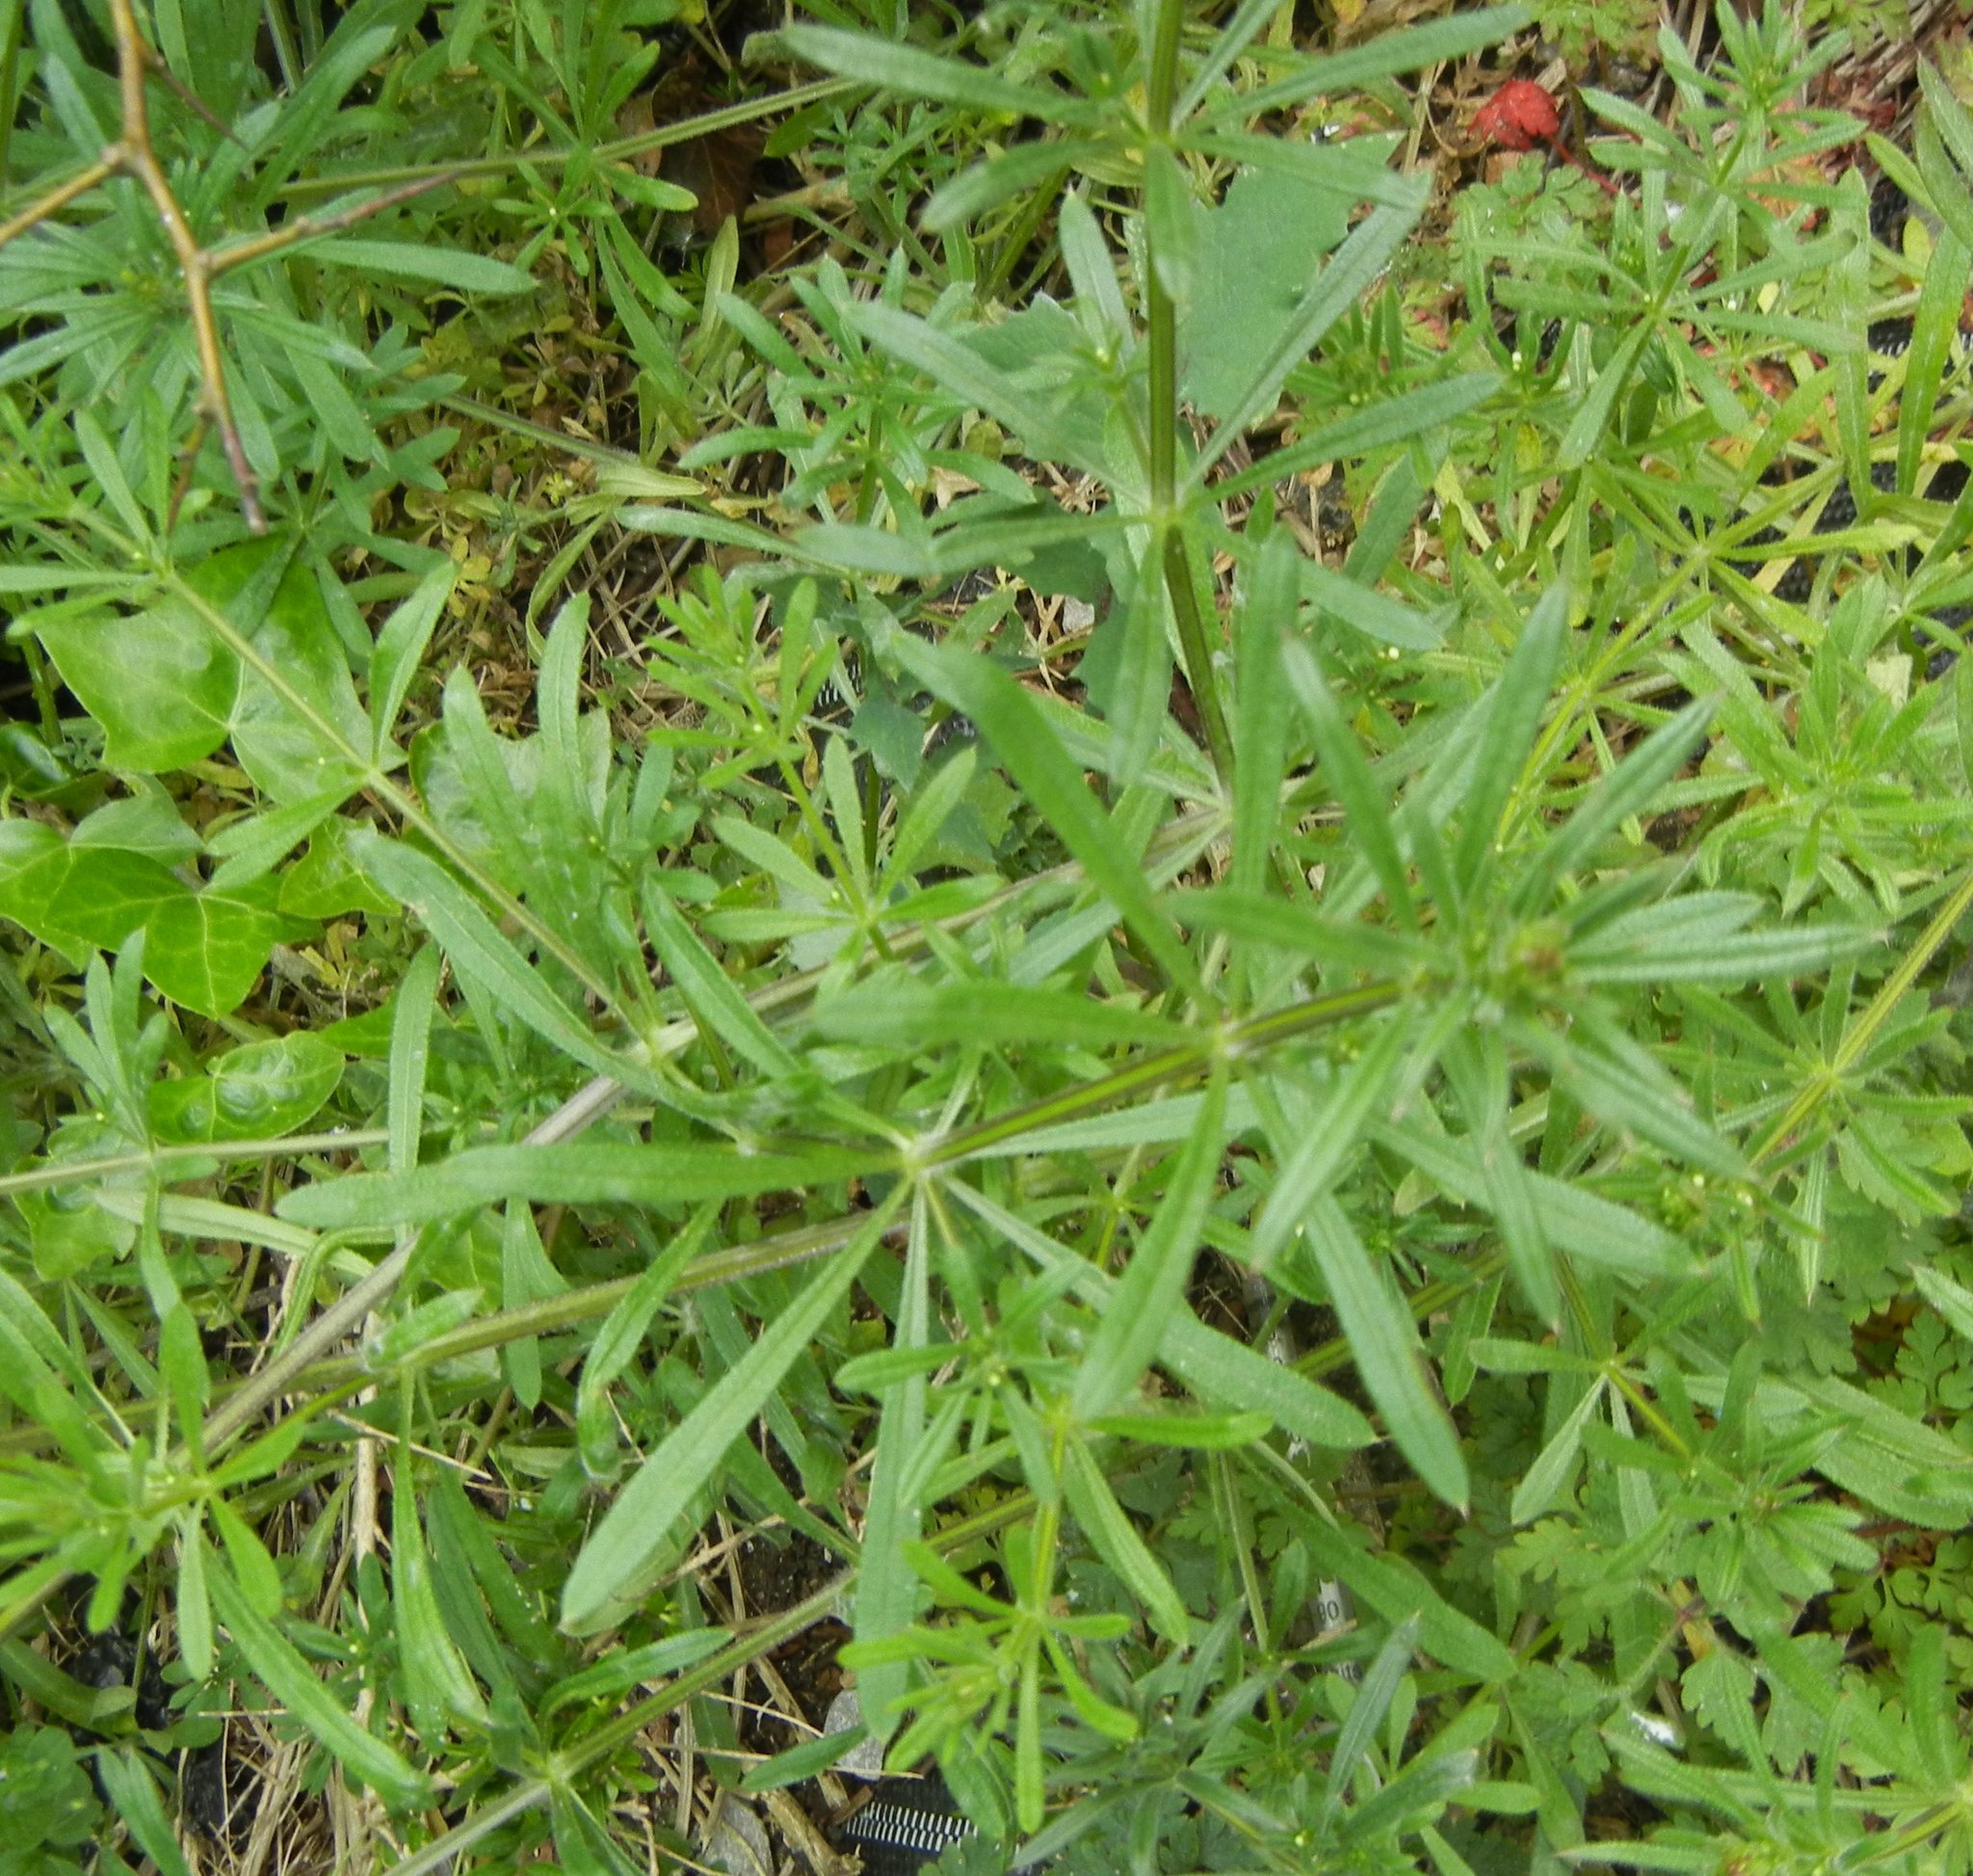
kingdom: Plantae
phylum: Tracheophyta
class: Magnoliopsida
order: Gentianales
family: Rubiaceae
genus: Galium
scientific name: Galium aparine
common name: Cleavers
